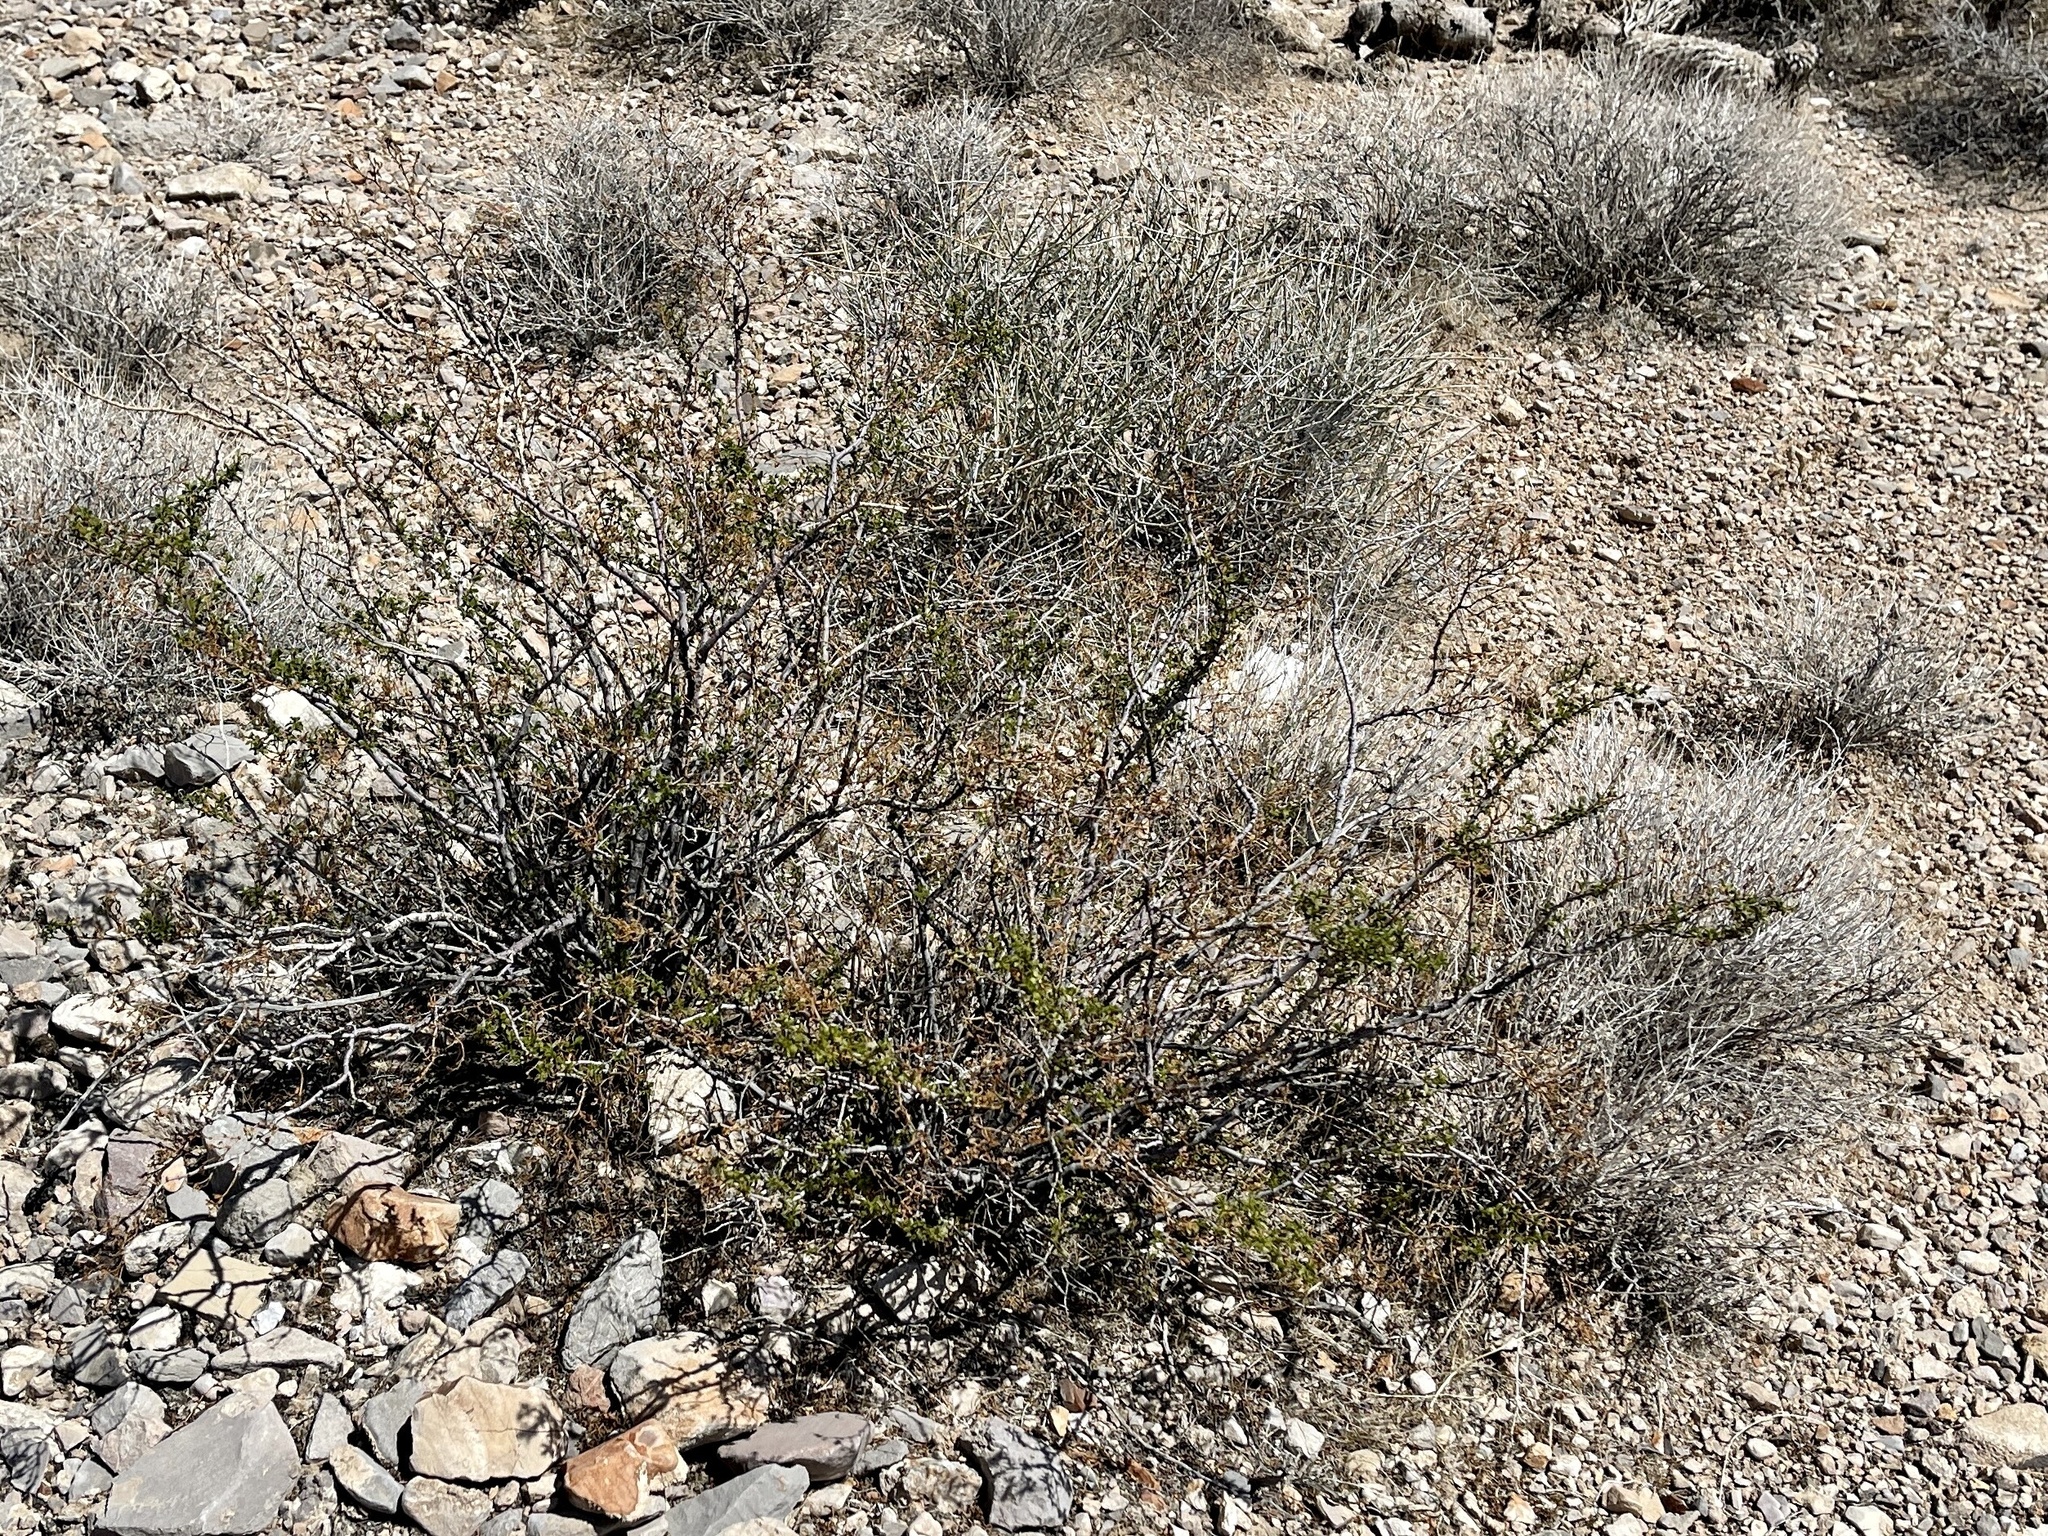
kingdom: Plantae
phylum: Tracheophyta
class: Magnoliopsida
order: Zygophyllales
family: Zygophyllaceae
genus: Larrea
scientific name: Larrea tridentata
